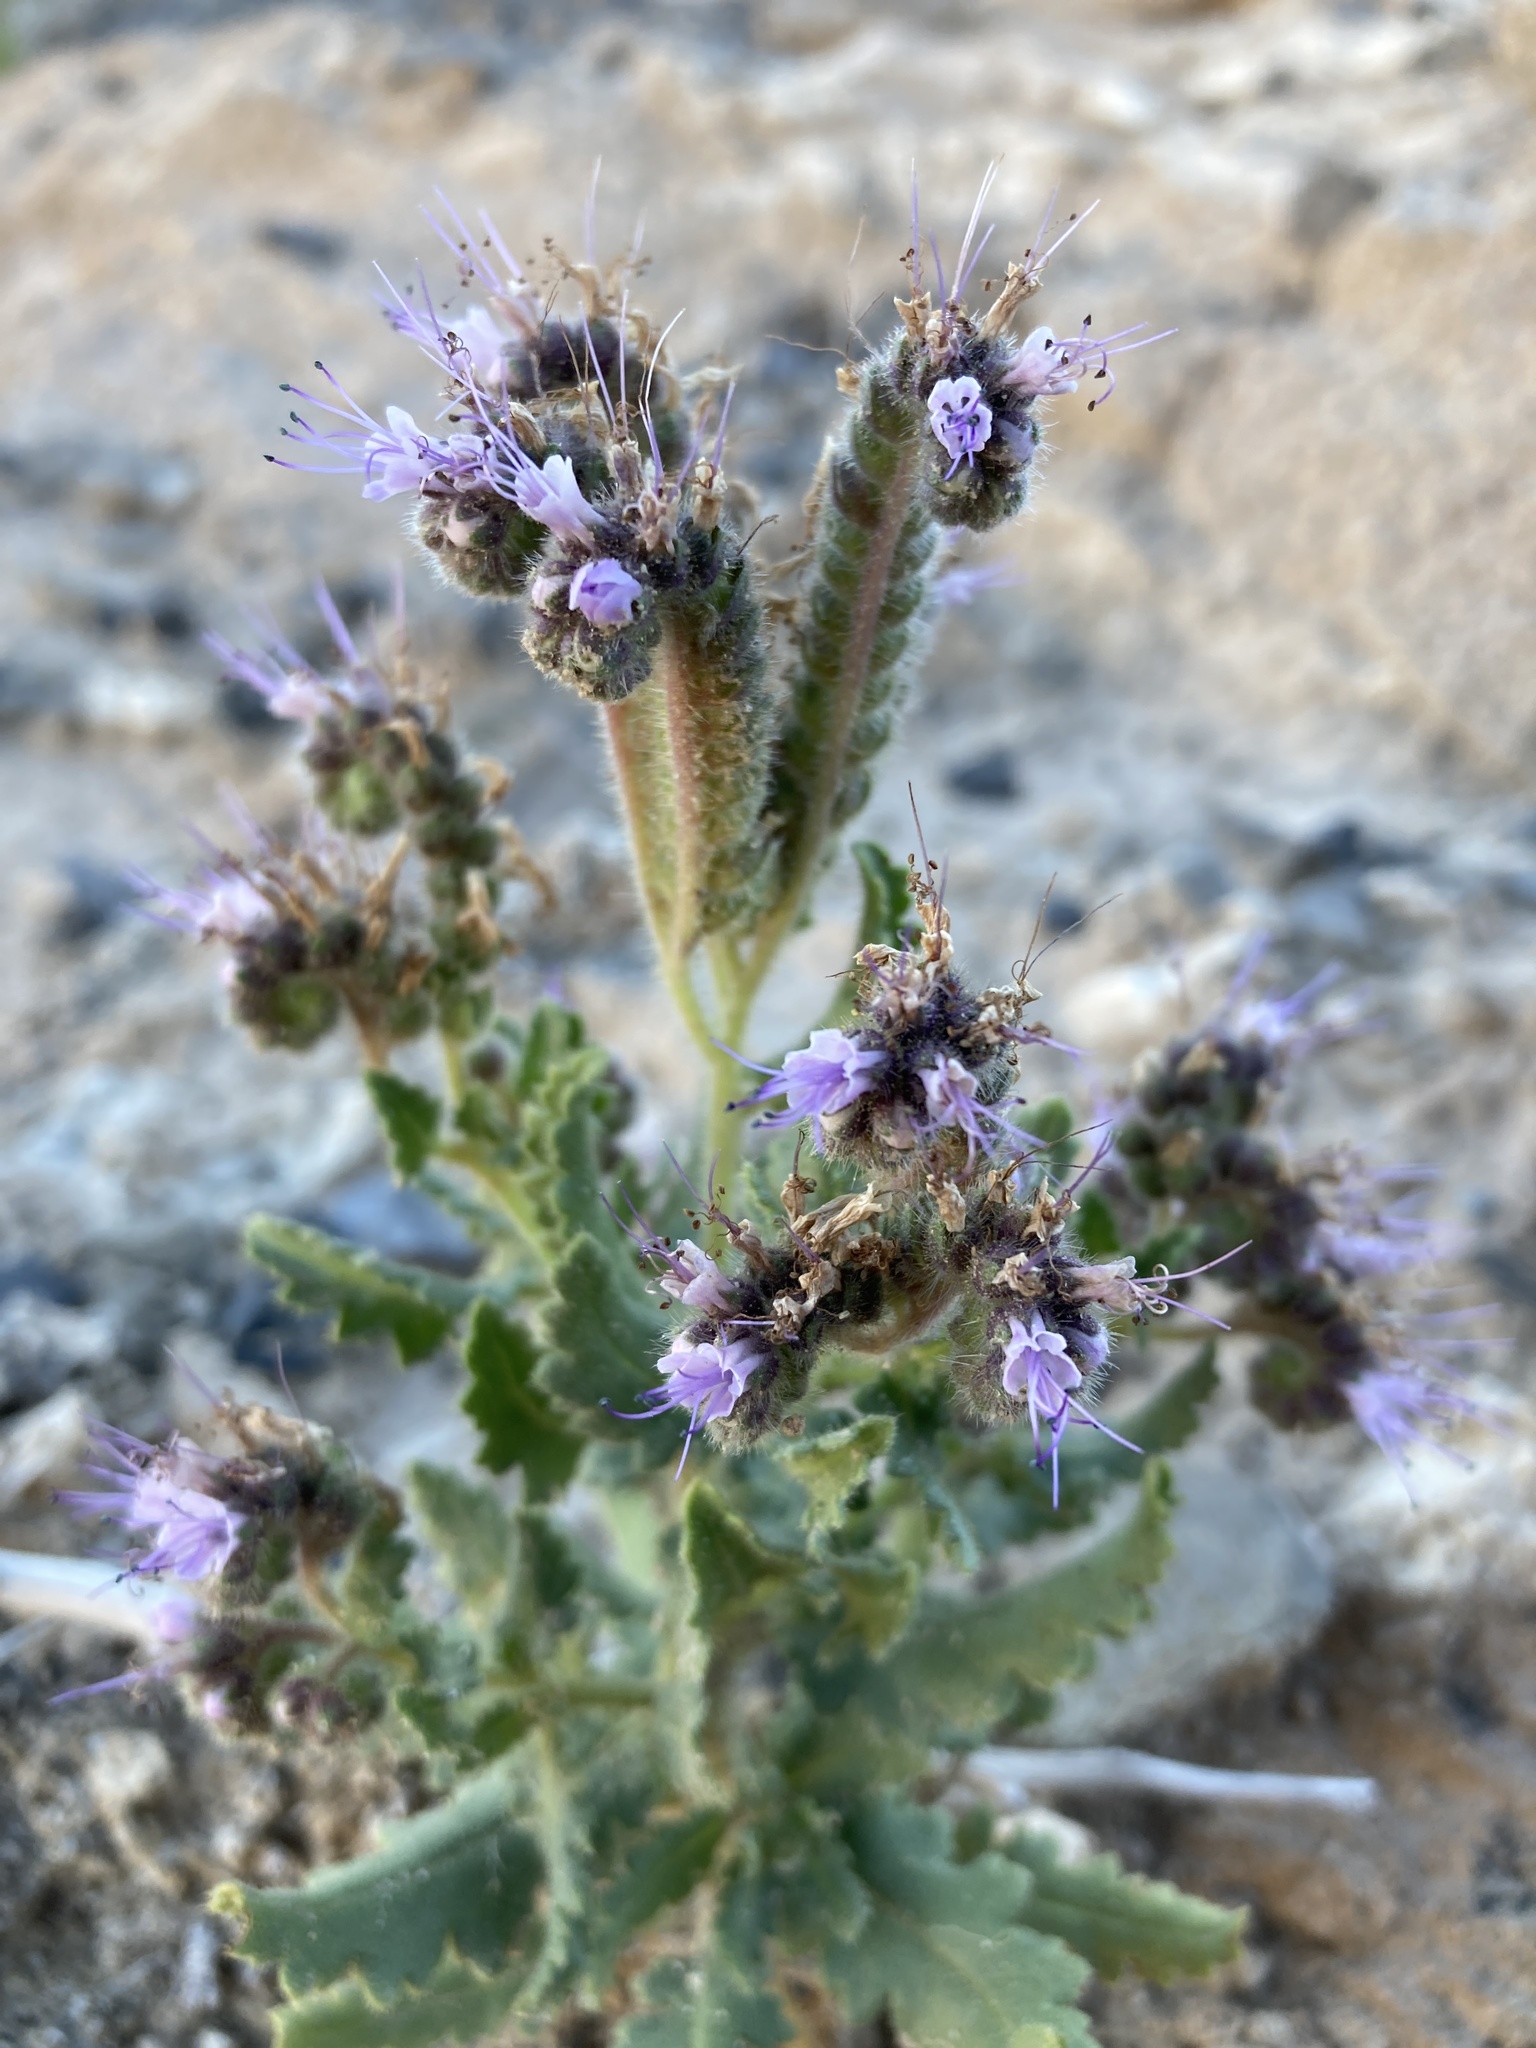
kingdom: Plantae
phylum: Tracheophyta
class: Magnoliopsida
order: Boraginales
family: Hydrophyllaceae
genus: Phacelia
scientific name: Phacelia sivinskii
